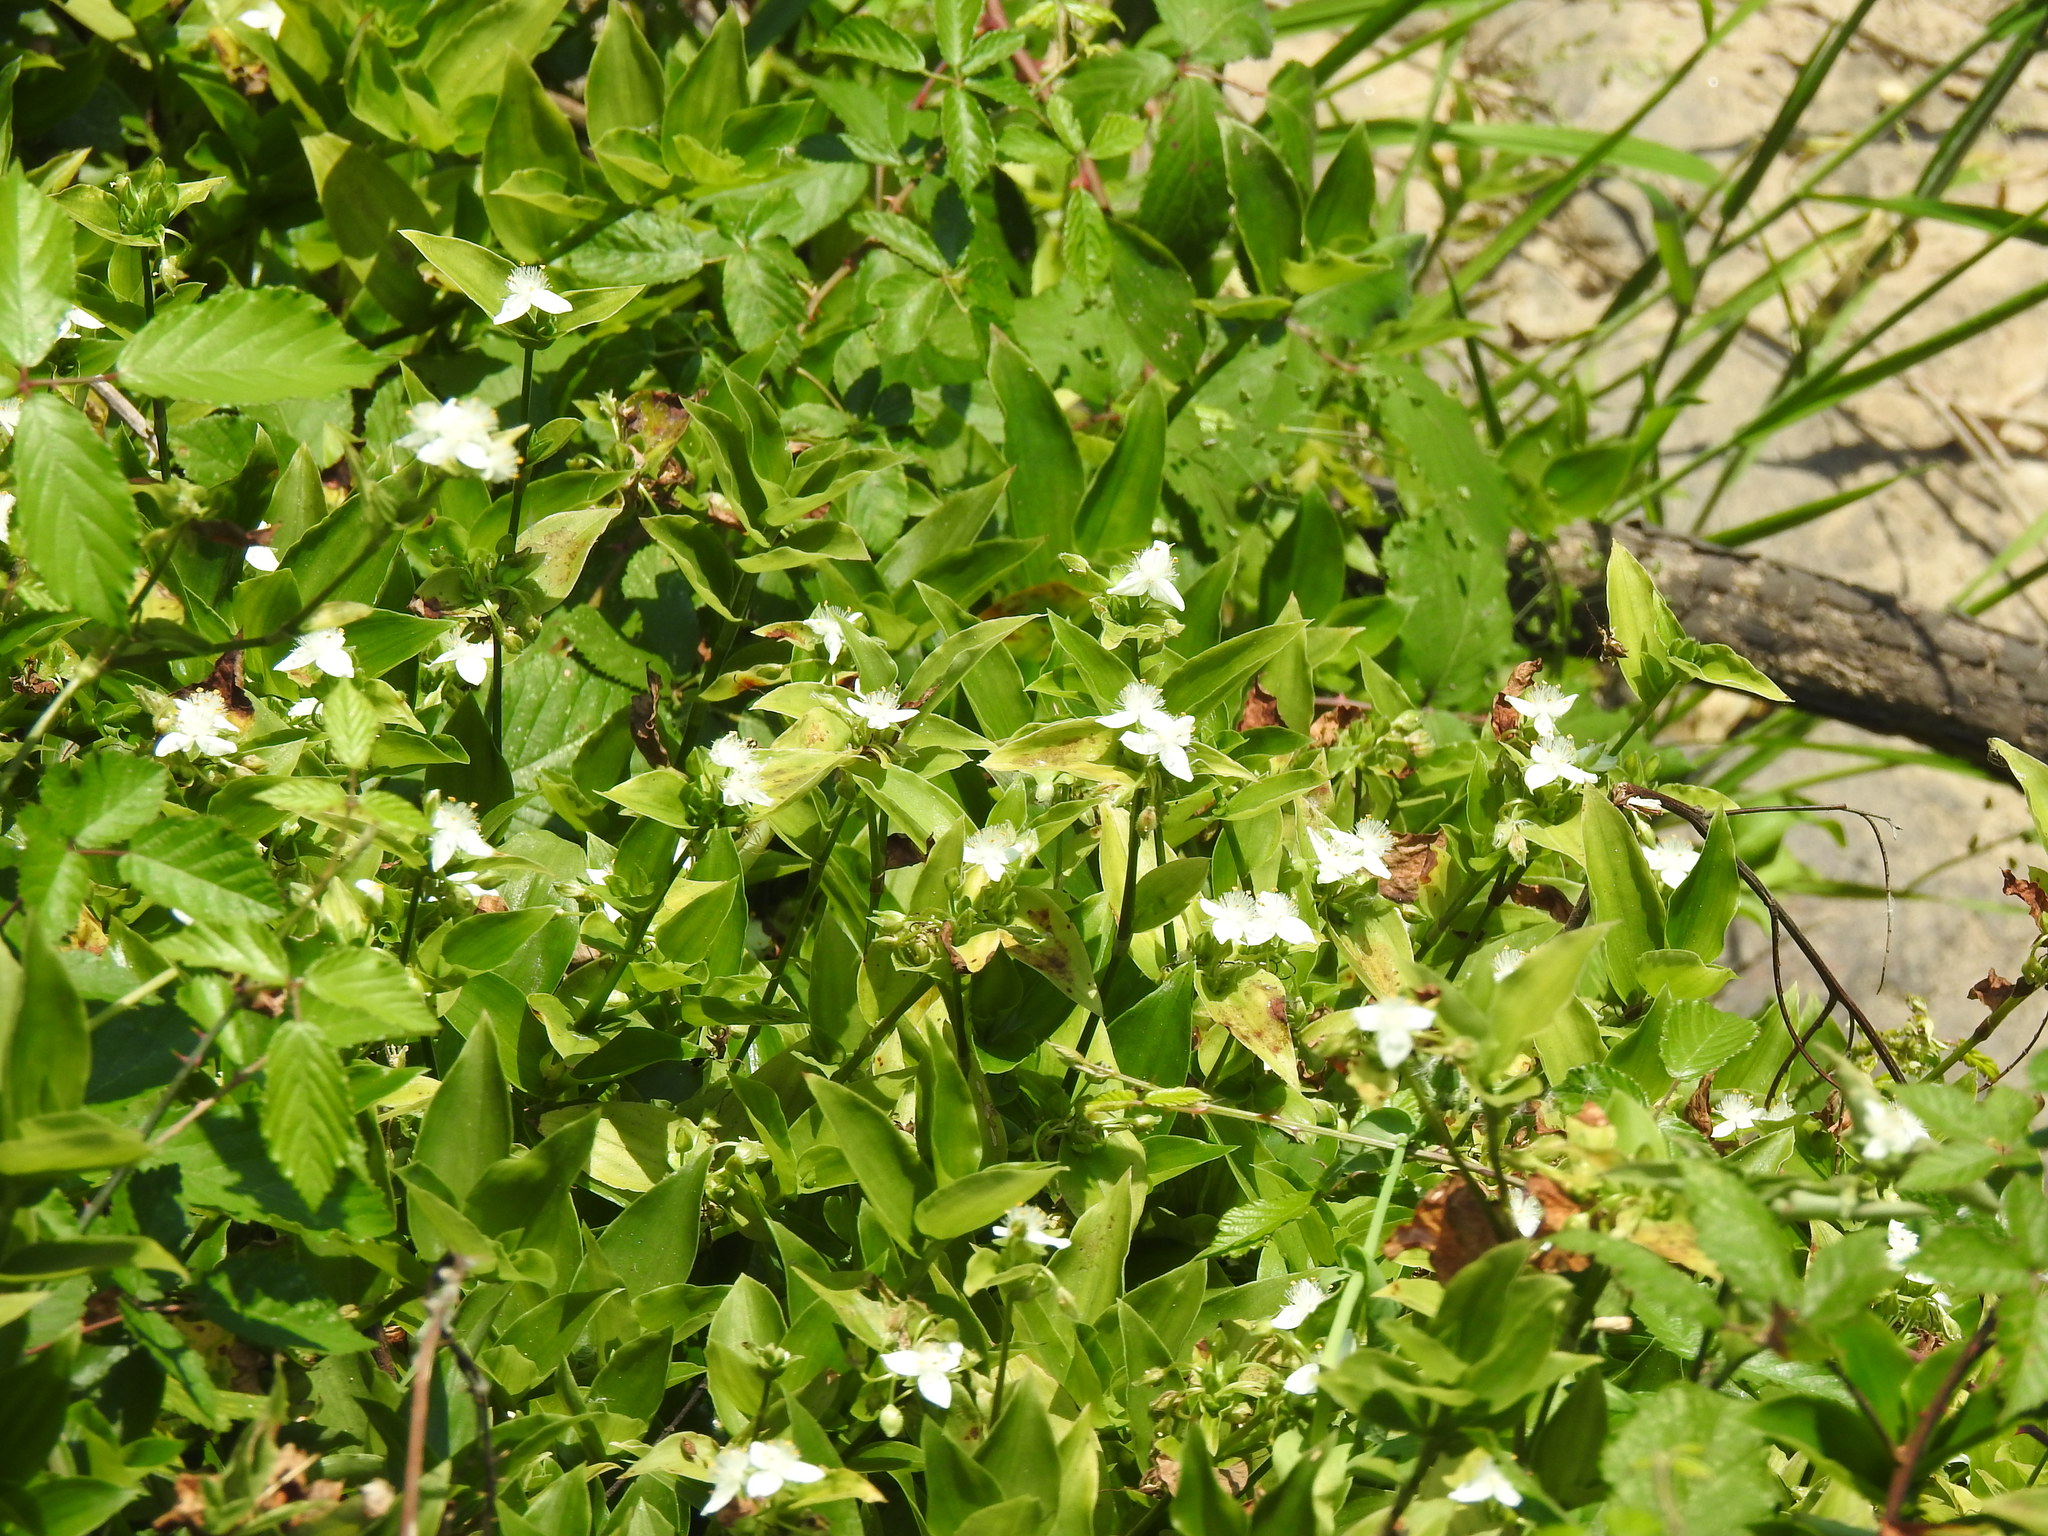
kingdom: Plantae
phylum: Tracheophyta
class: Liliopsida
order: Commelinales
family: Commelinaceae
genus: Tradescantia
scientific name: Tradescantia fluminensis
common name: Wandering-jew
